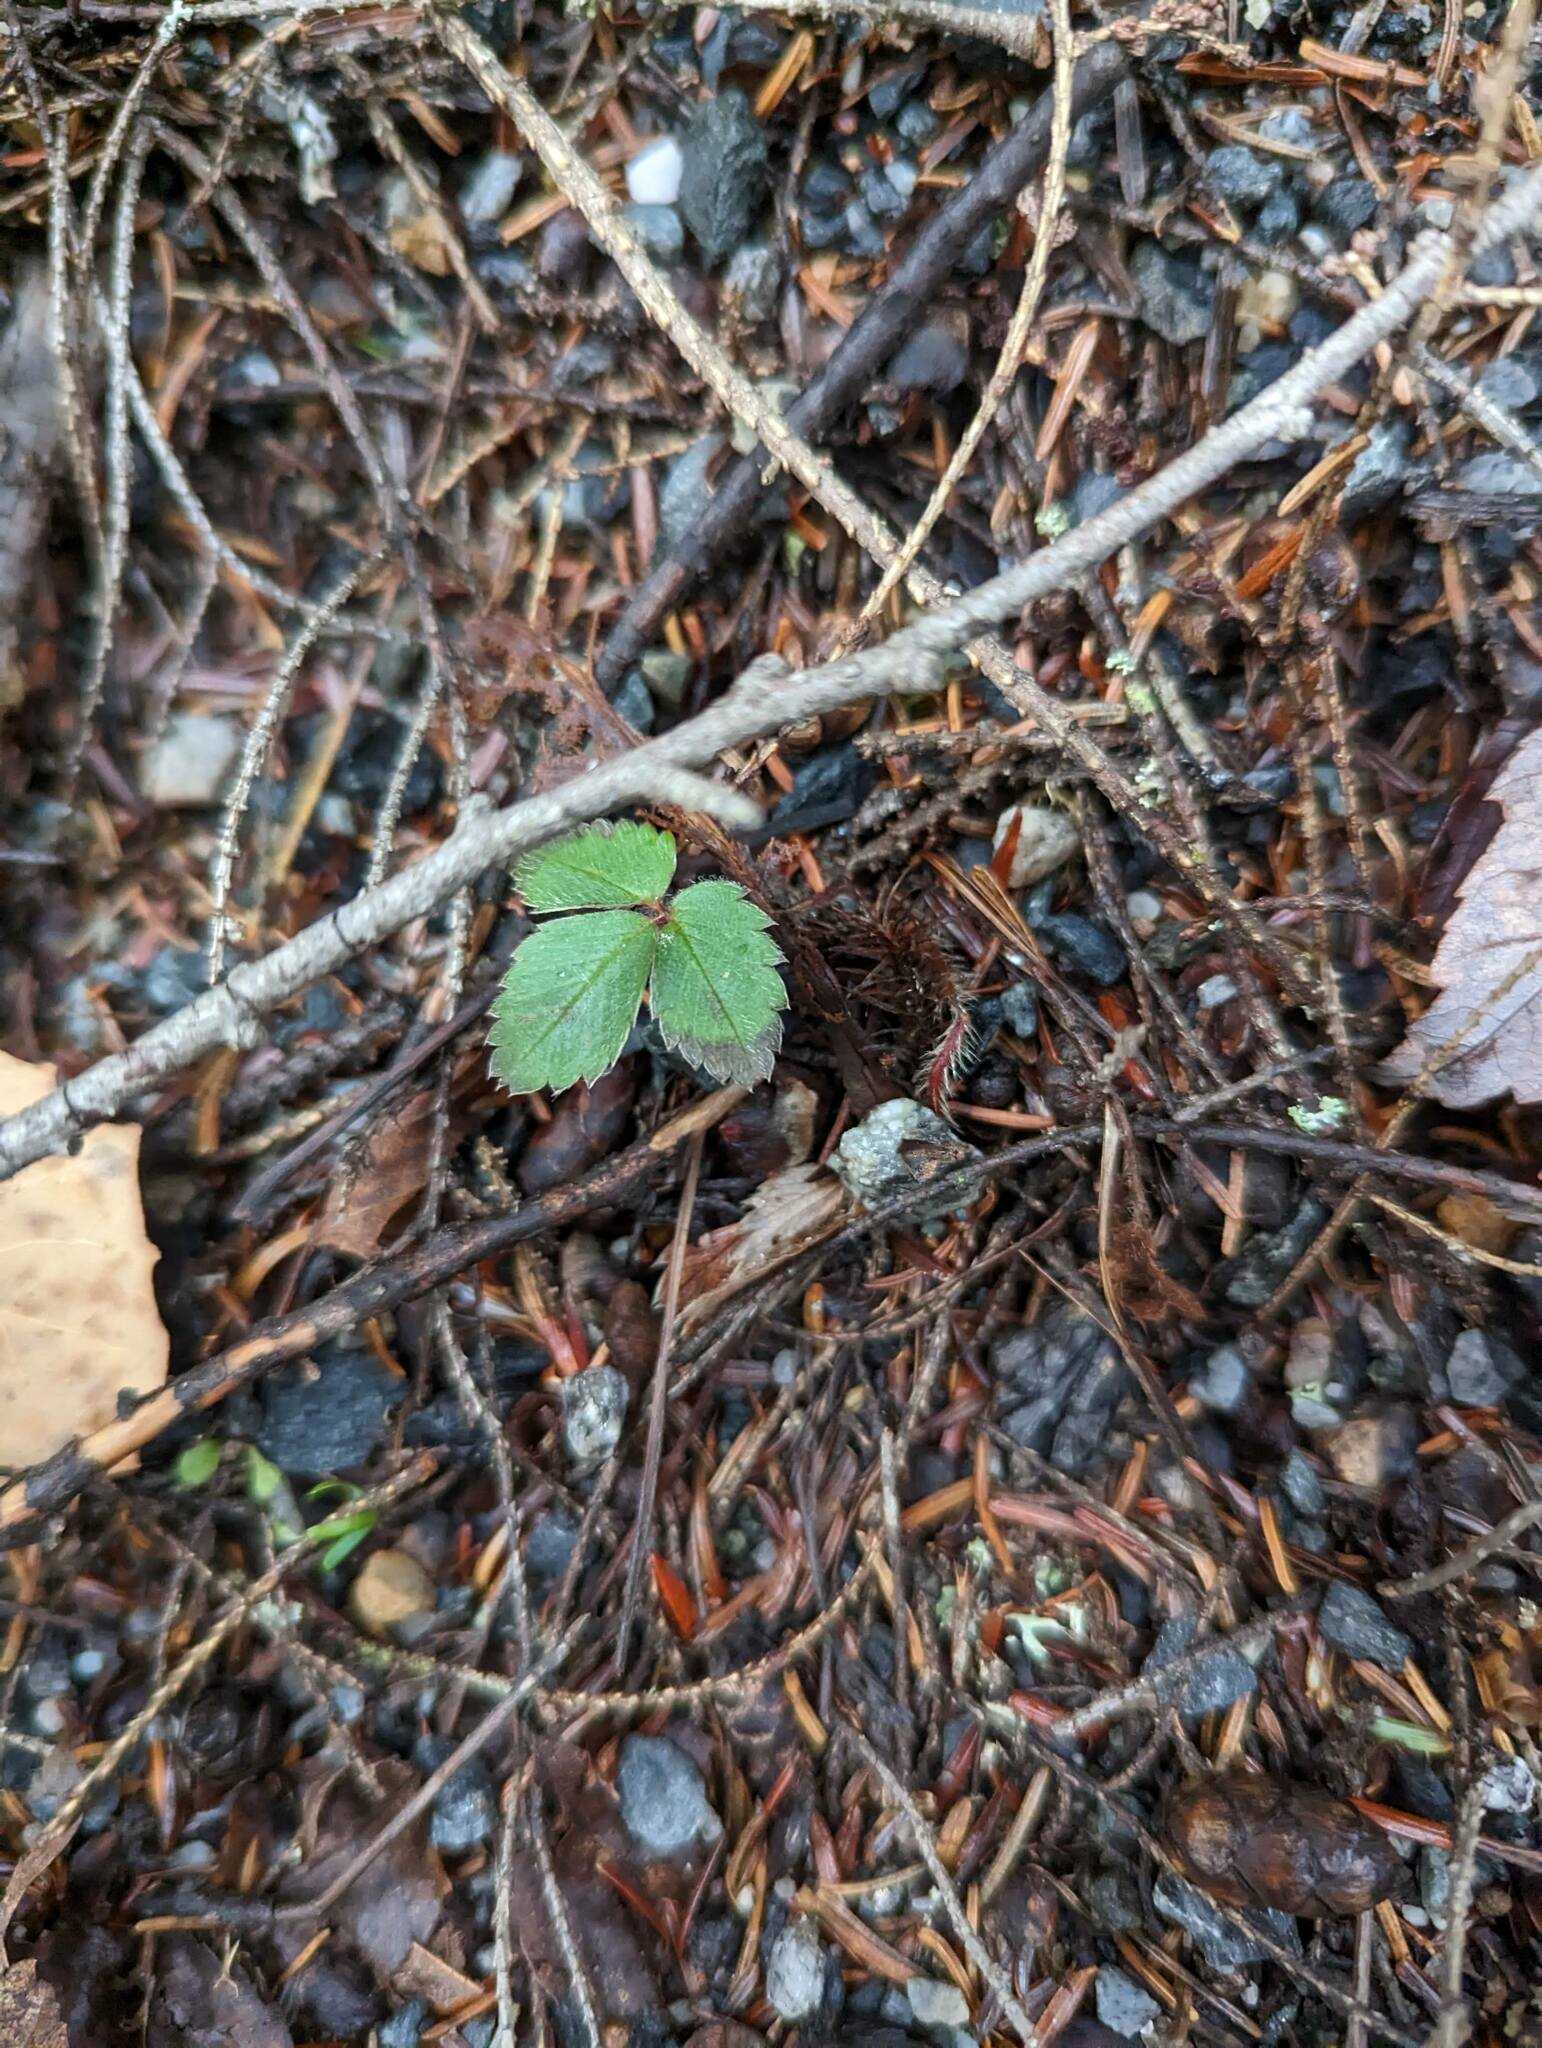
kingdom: Plantae
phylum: Tracheophyta
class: Magnoliopsida
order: Rosales
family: Rosaceae
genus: Fragaria
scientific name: Fragaria virginiana
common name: Thickleaved wild strawberry
